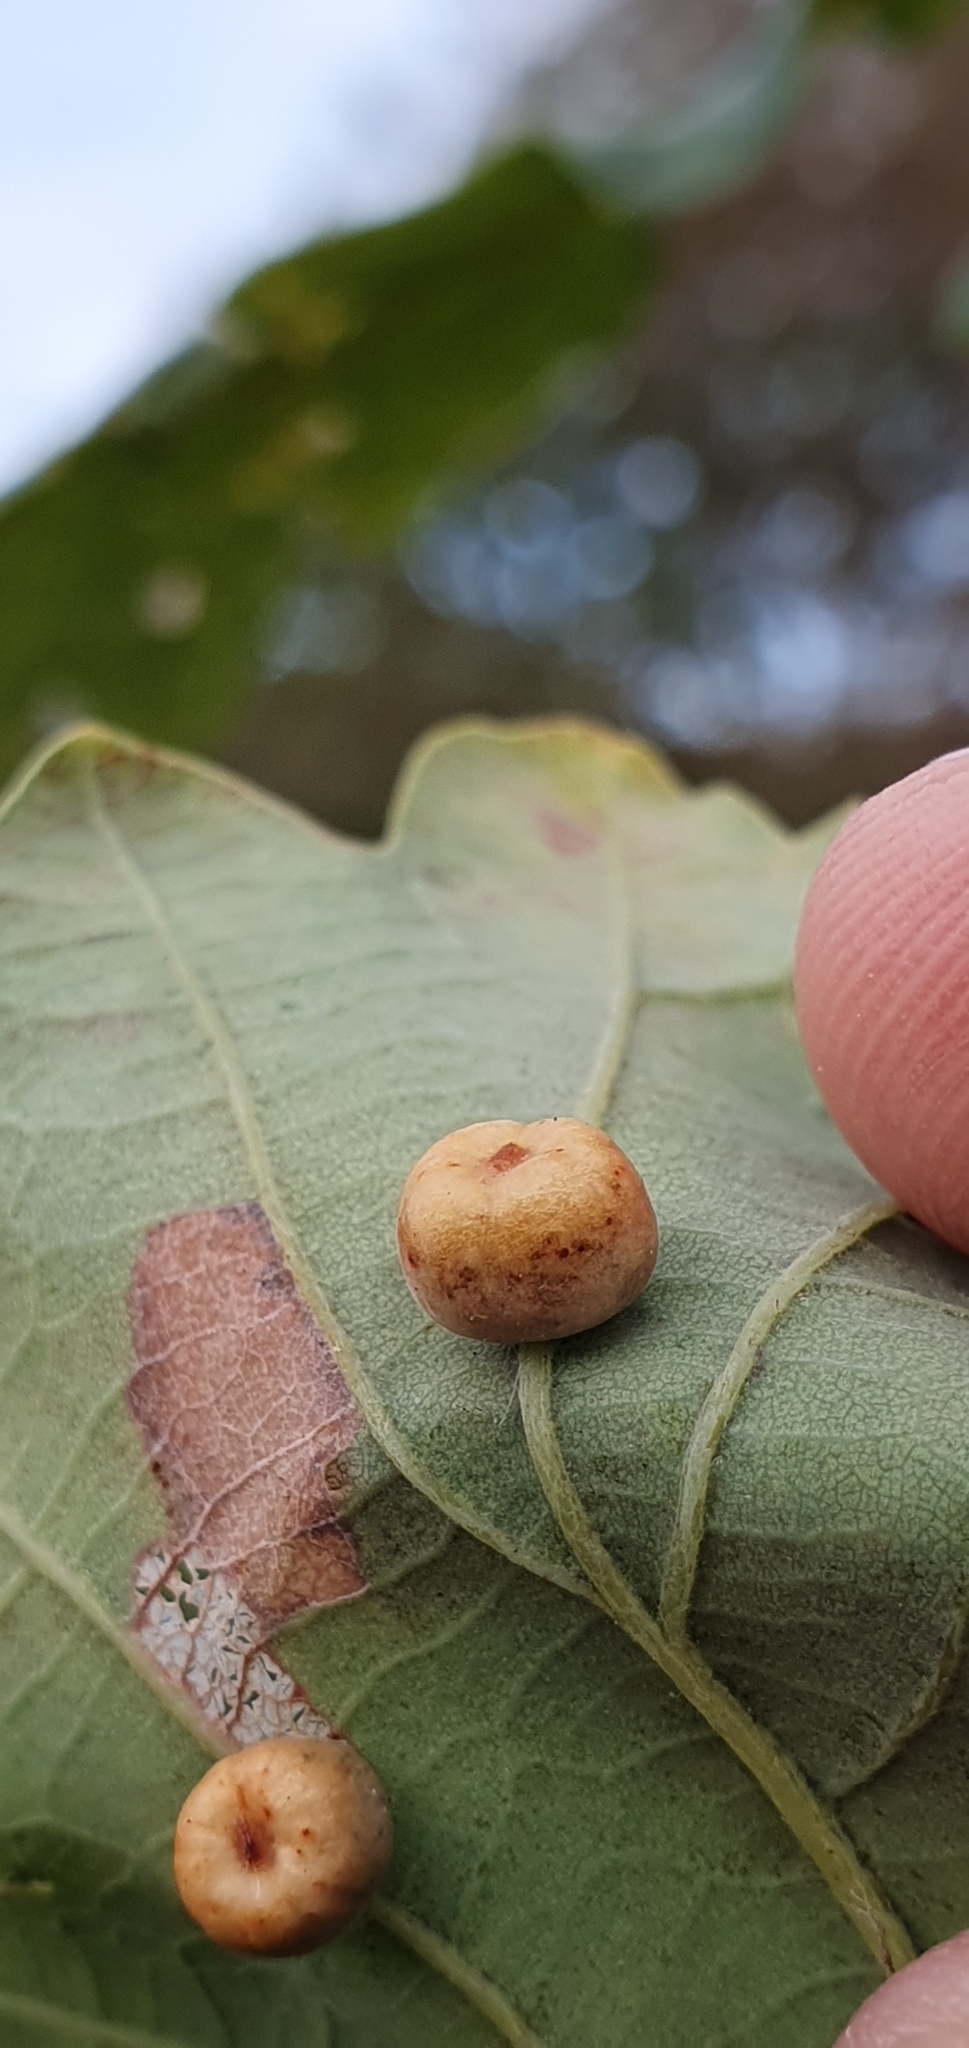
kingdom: Animalia
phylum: Arthropoda
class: Insecta
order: Hymenoptera
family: Cynipidae
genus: Cynips
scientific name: Cynips disticha
